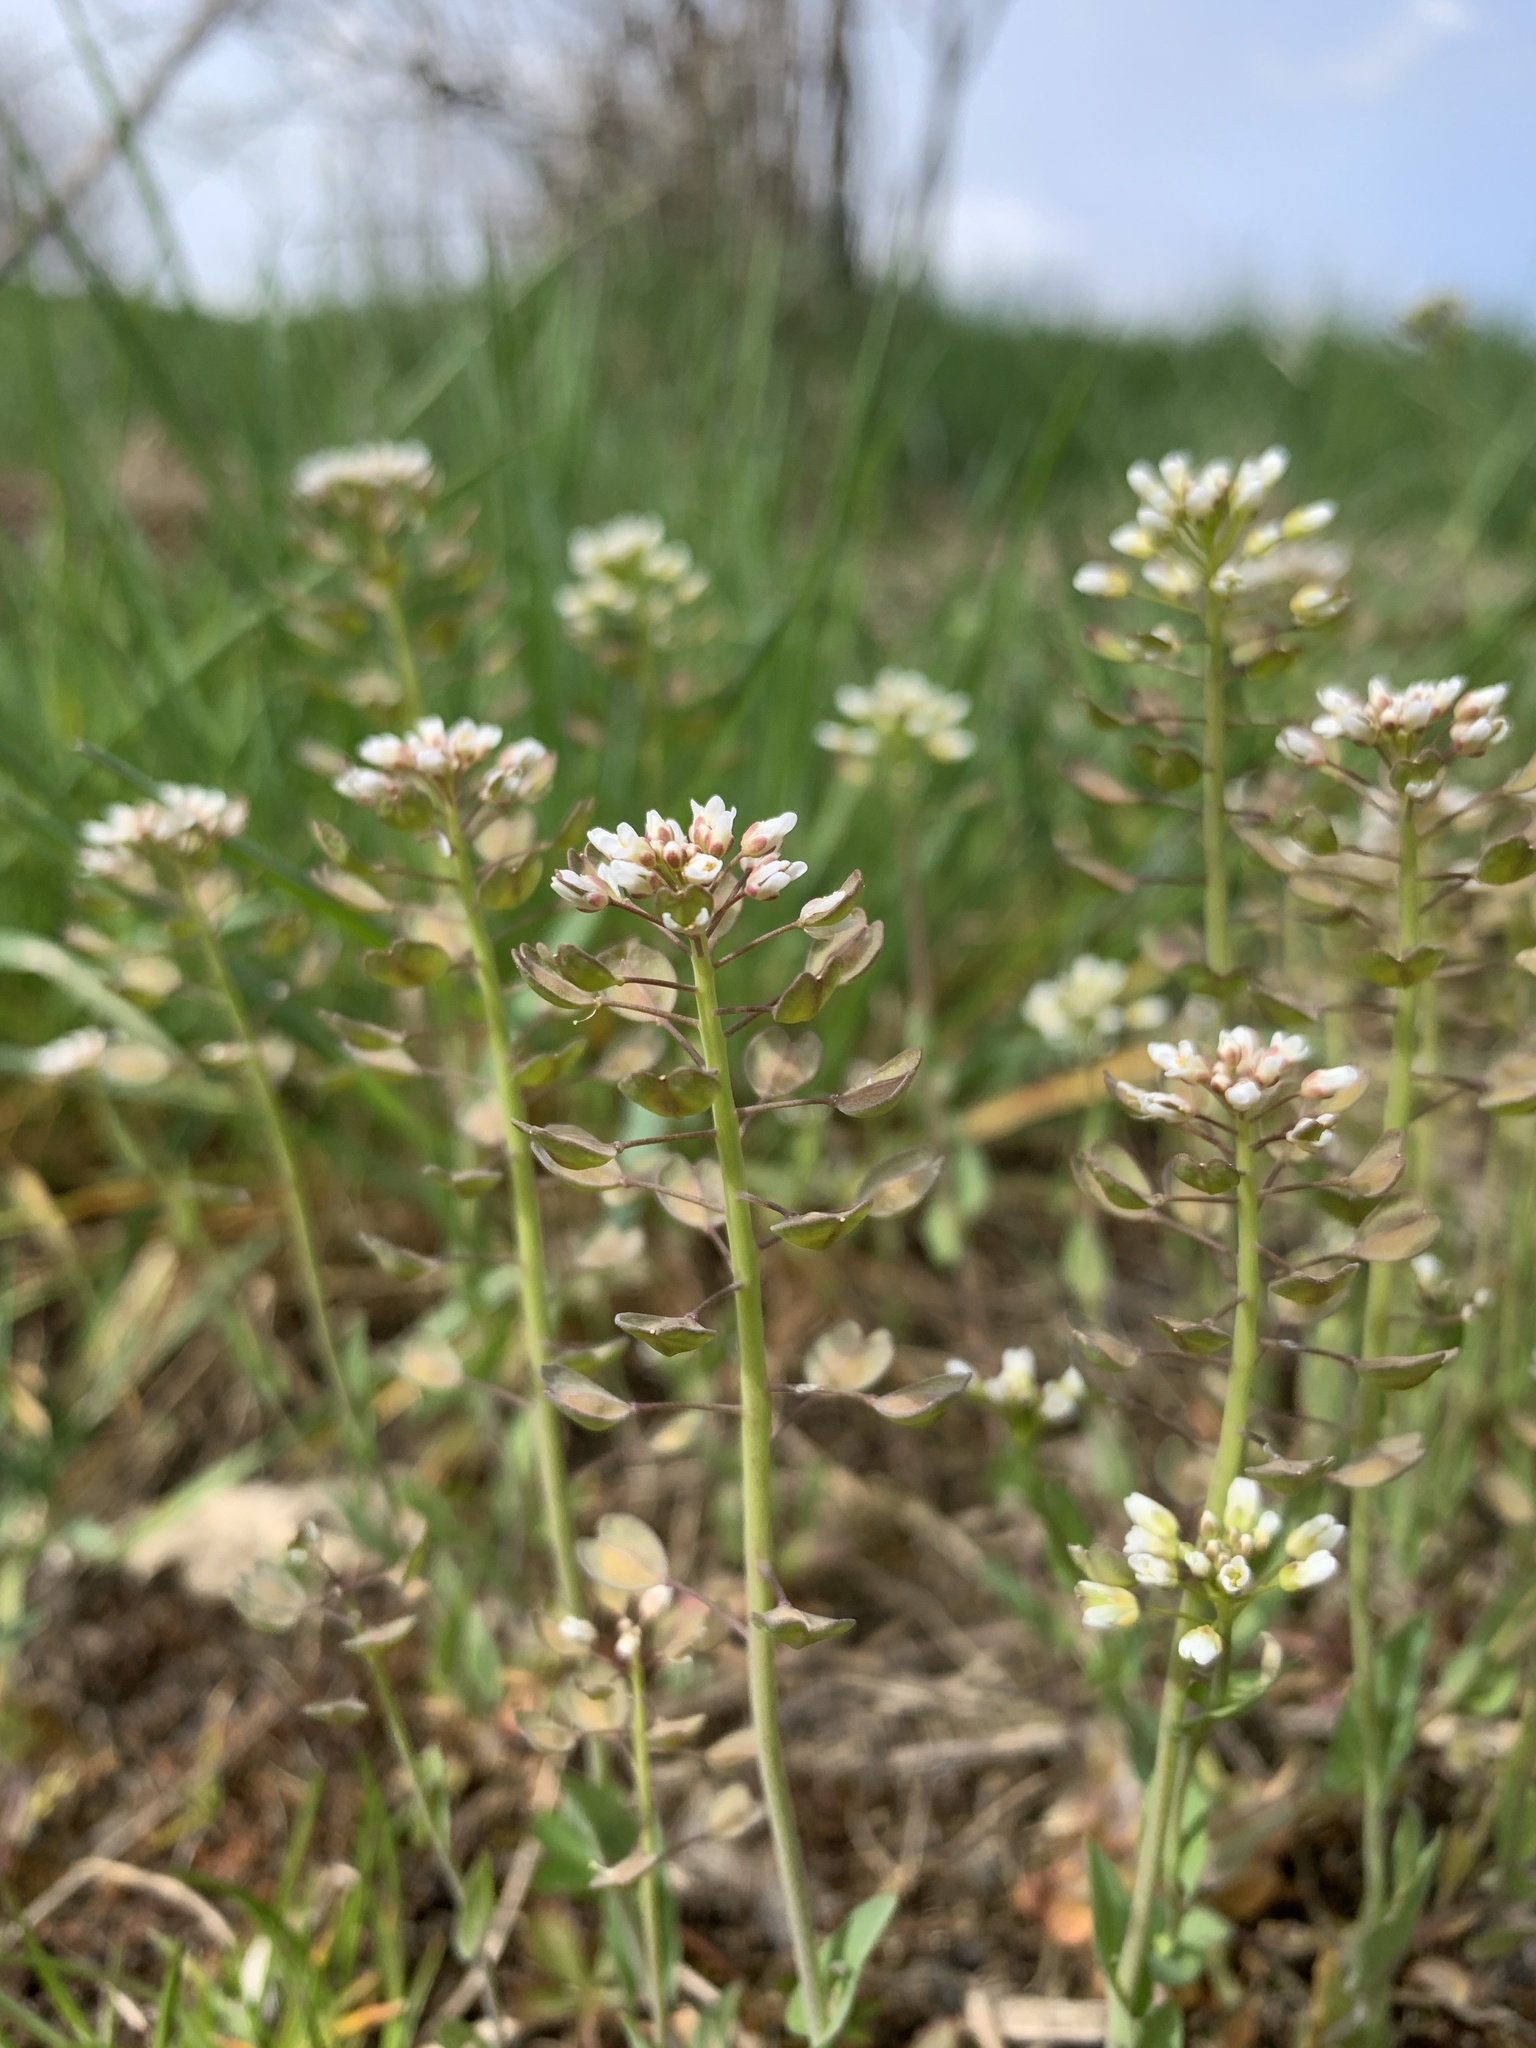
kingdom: Plantae
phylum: Tracheophyta
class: Magnoliopsida
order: Brassicales
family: Brassicaceae
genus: Noccaea
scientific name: Noccaea perfoliata
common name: Perfoliate pennycress
